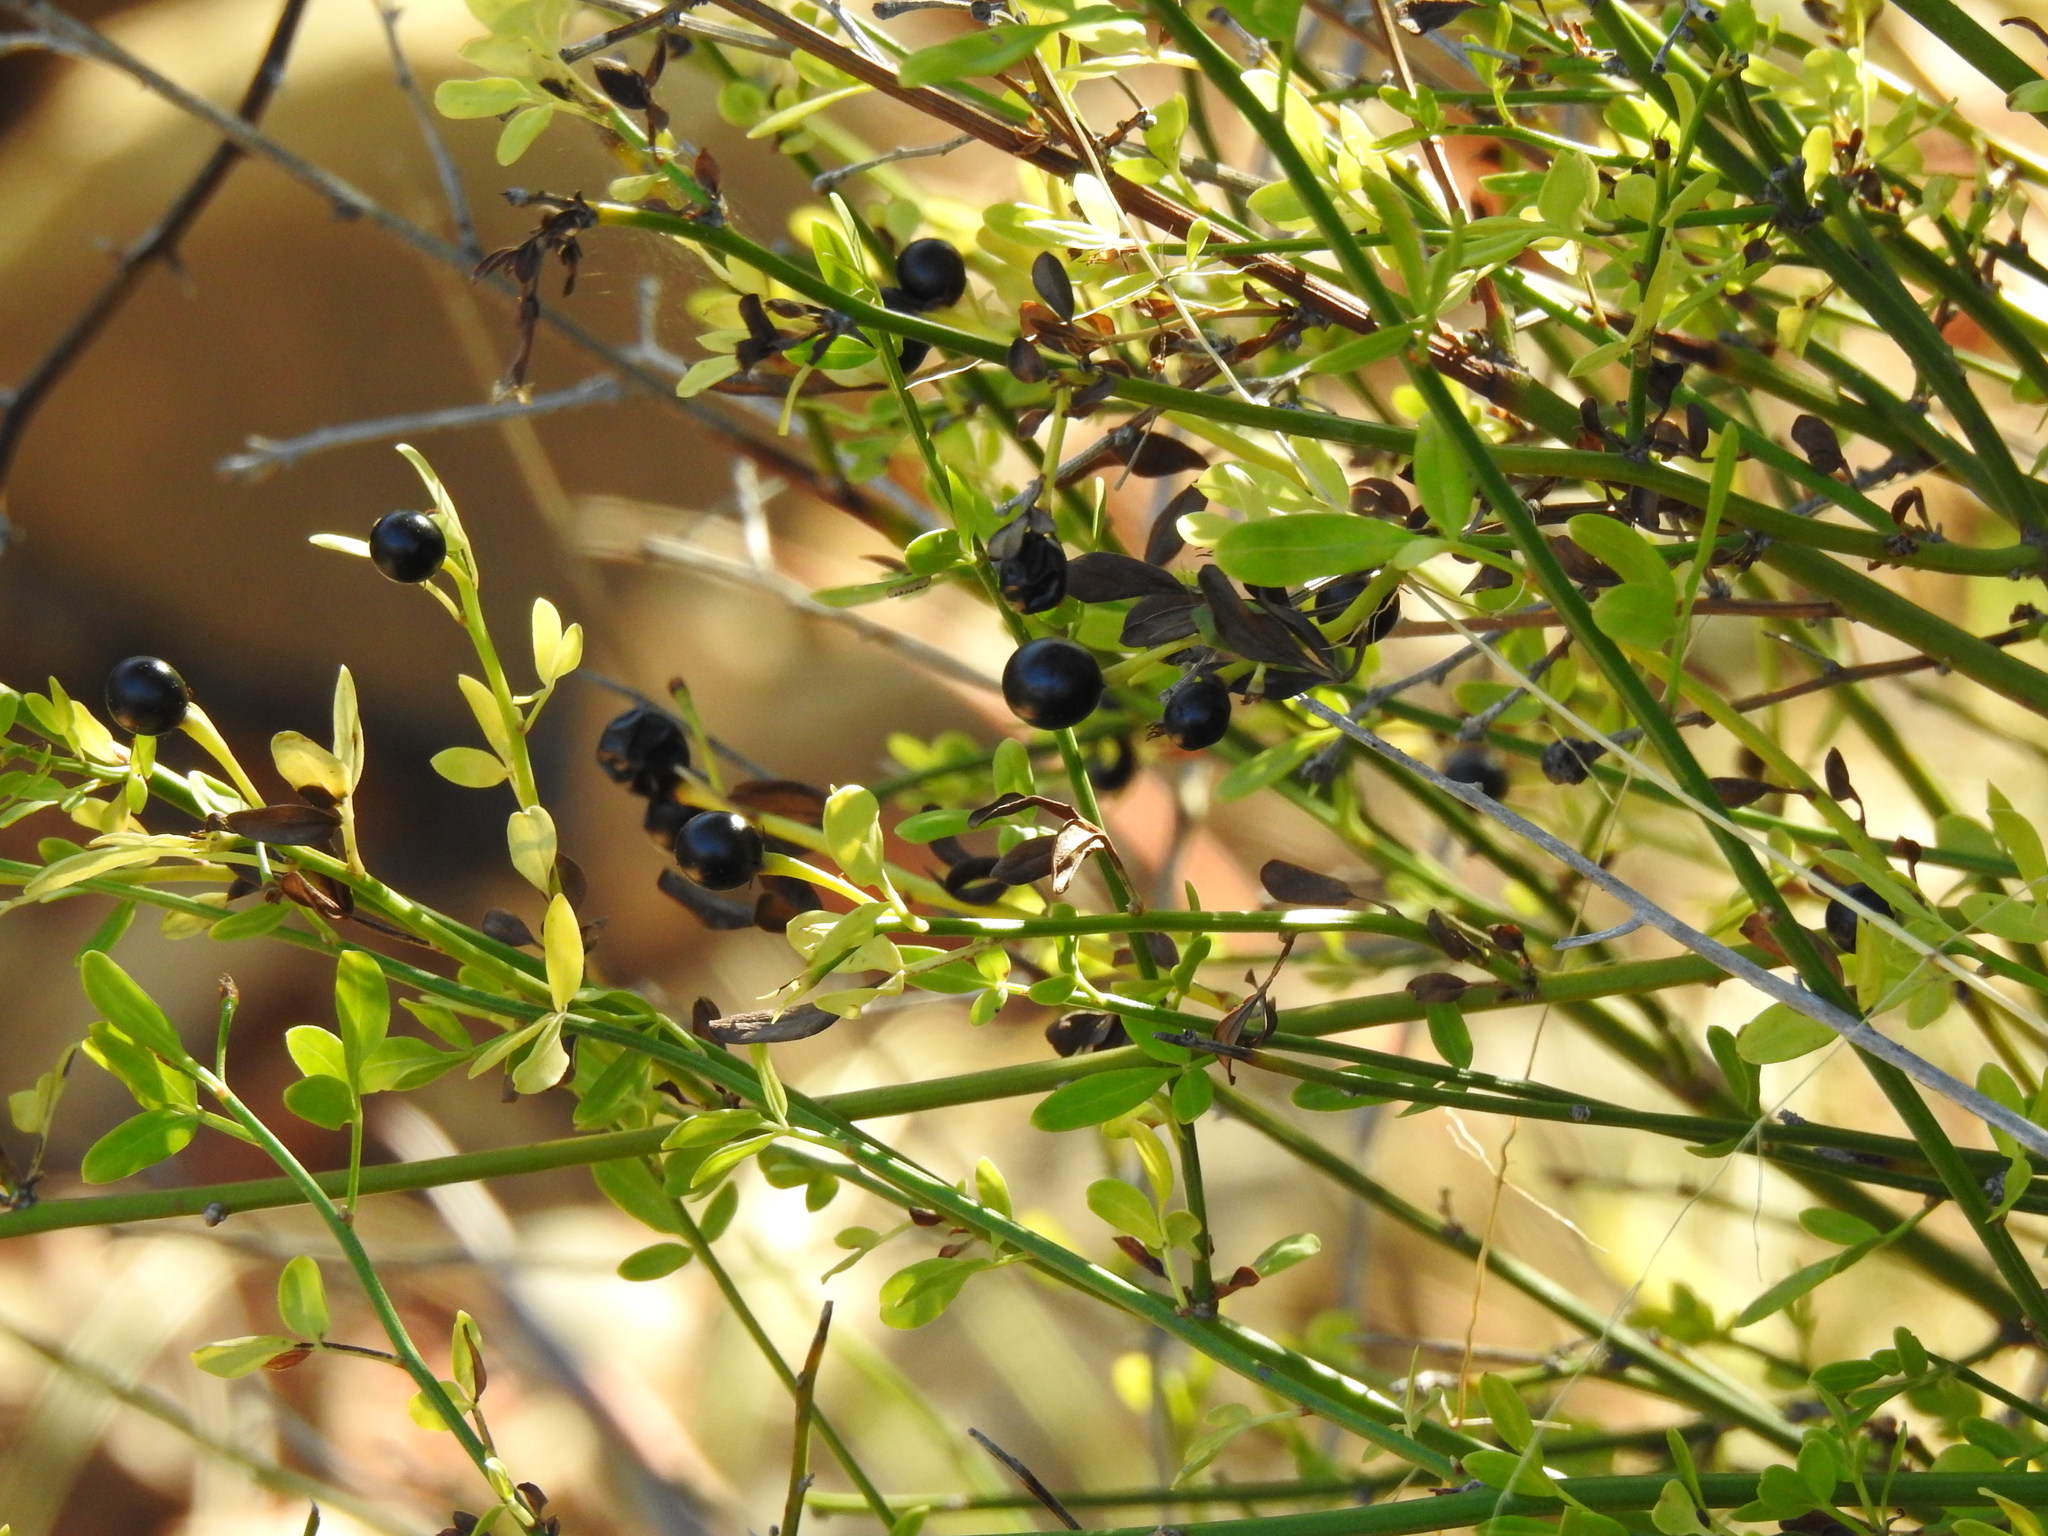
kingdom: Plantae
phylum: Tracheophyta
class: Magnoliopsida
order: Lamiales
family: Oleaceae
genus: Chrysojasminum
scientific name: Chrysojasminum fruticans
